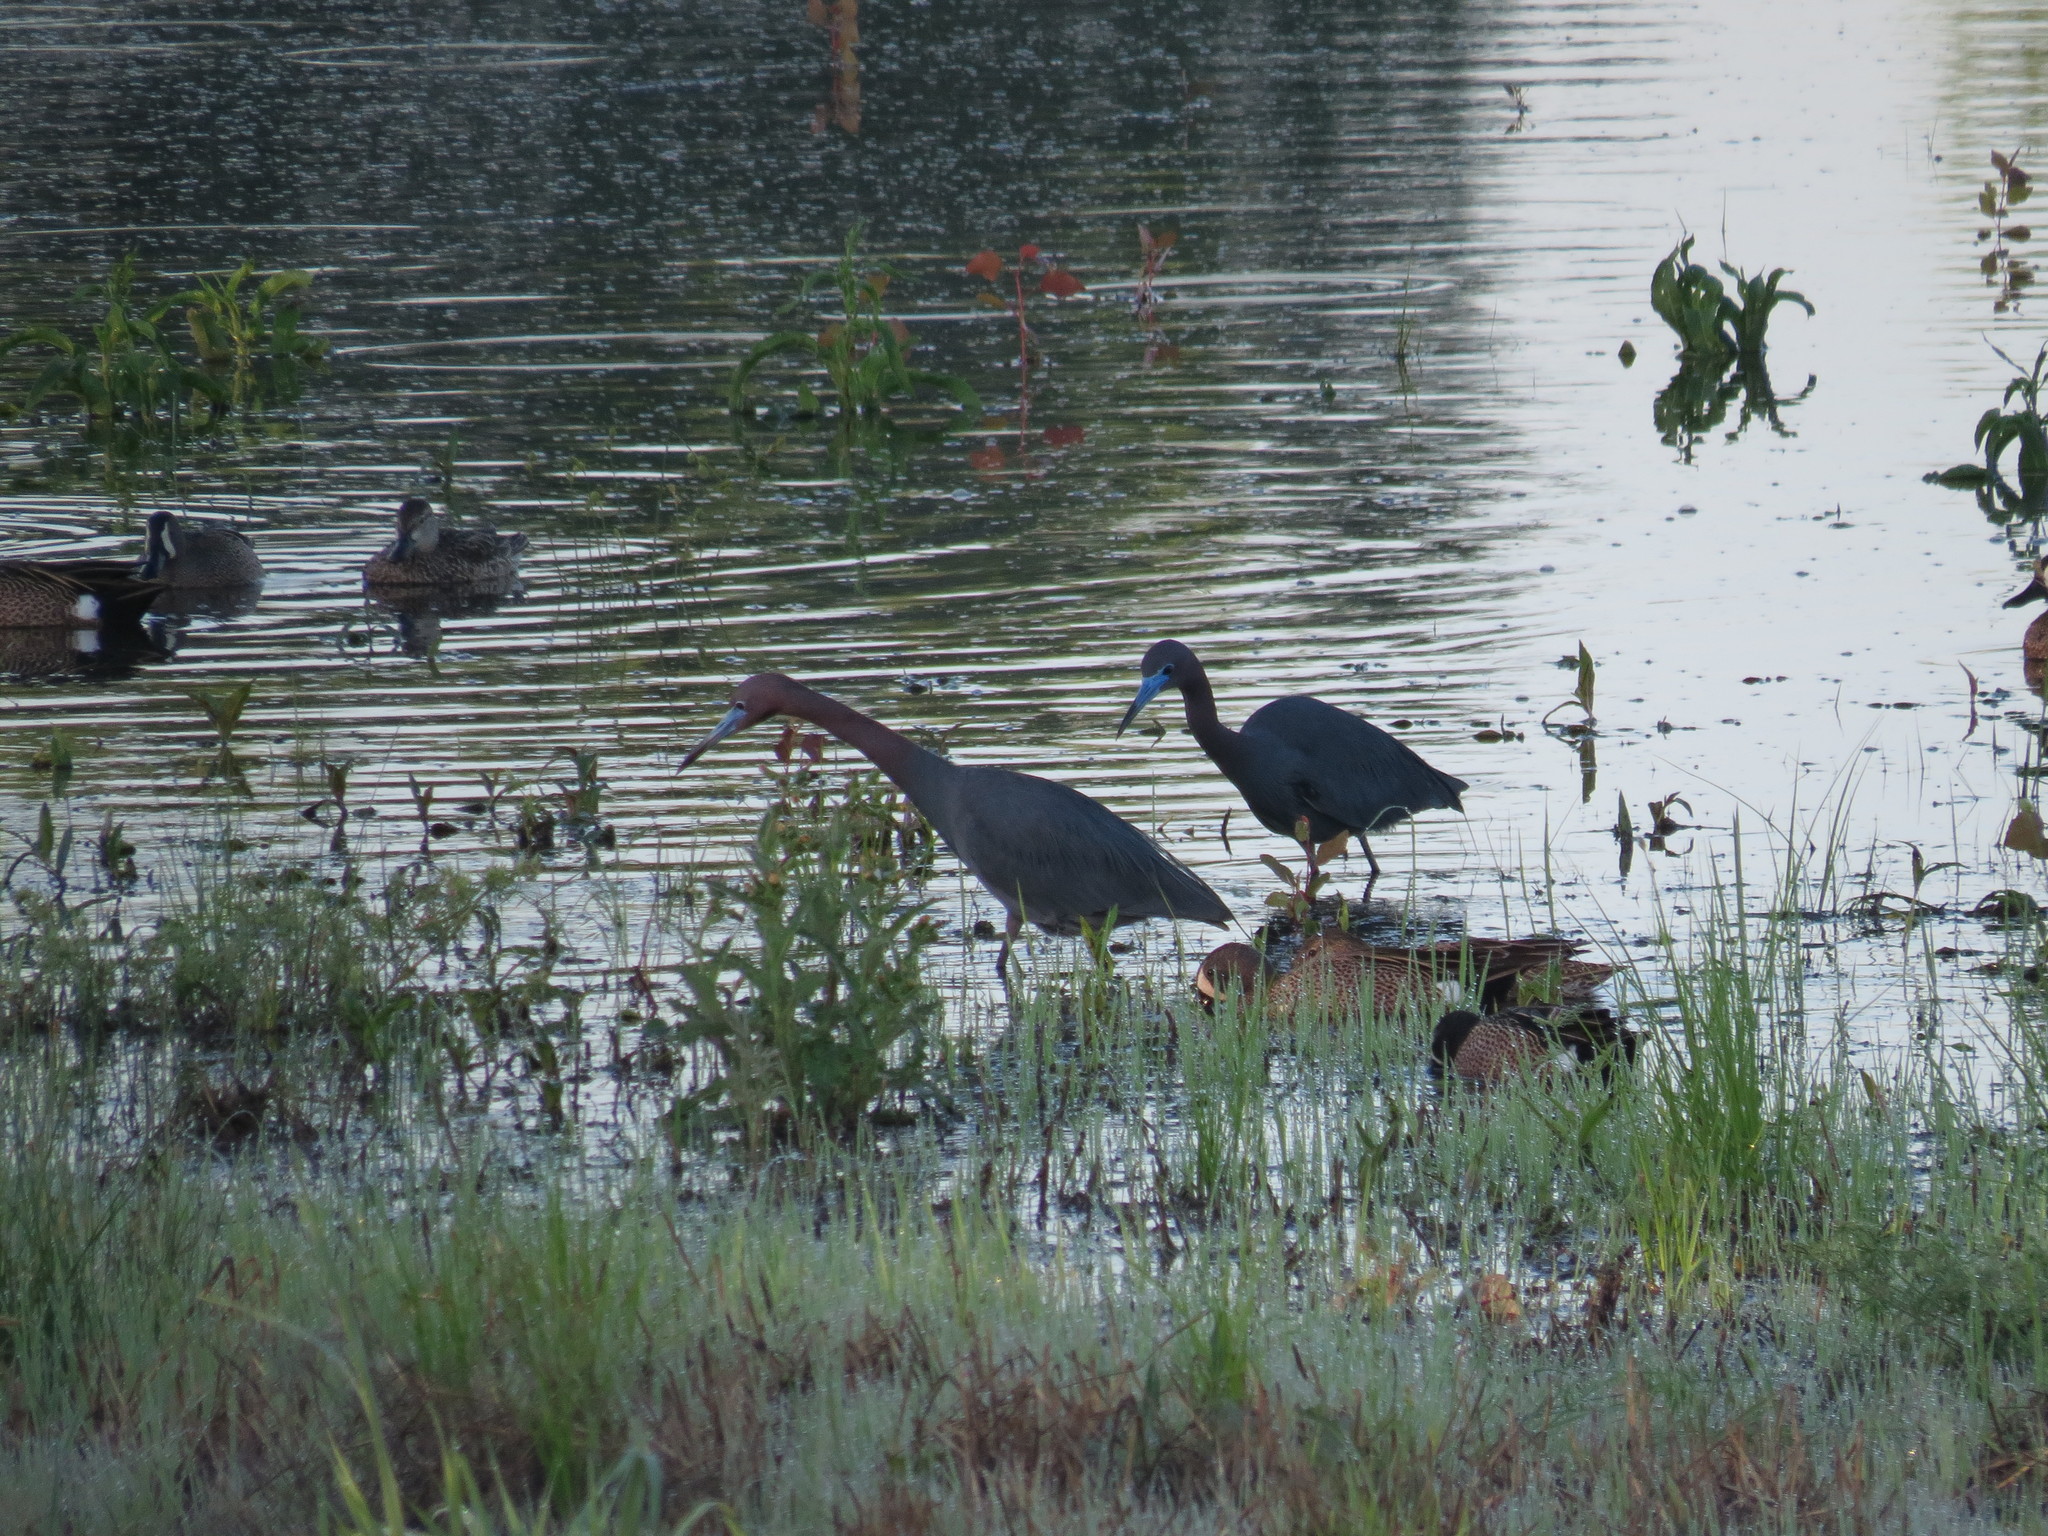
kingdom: Animalia
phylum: Chordata
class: Aves
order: Pelecaniformes
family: Ardeidae
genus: Egretta
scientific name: Egretta caerulea
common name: Little blue heron
